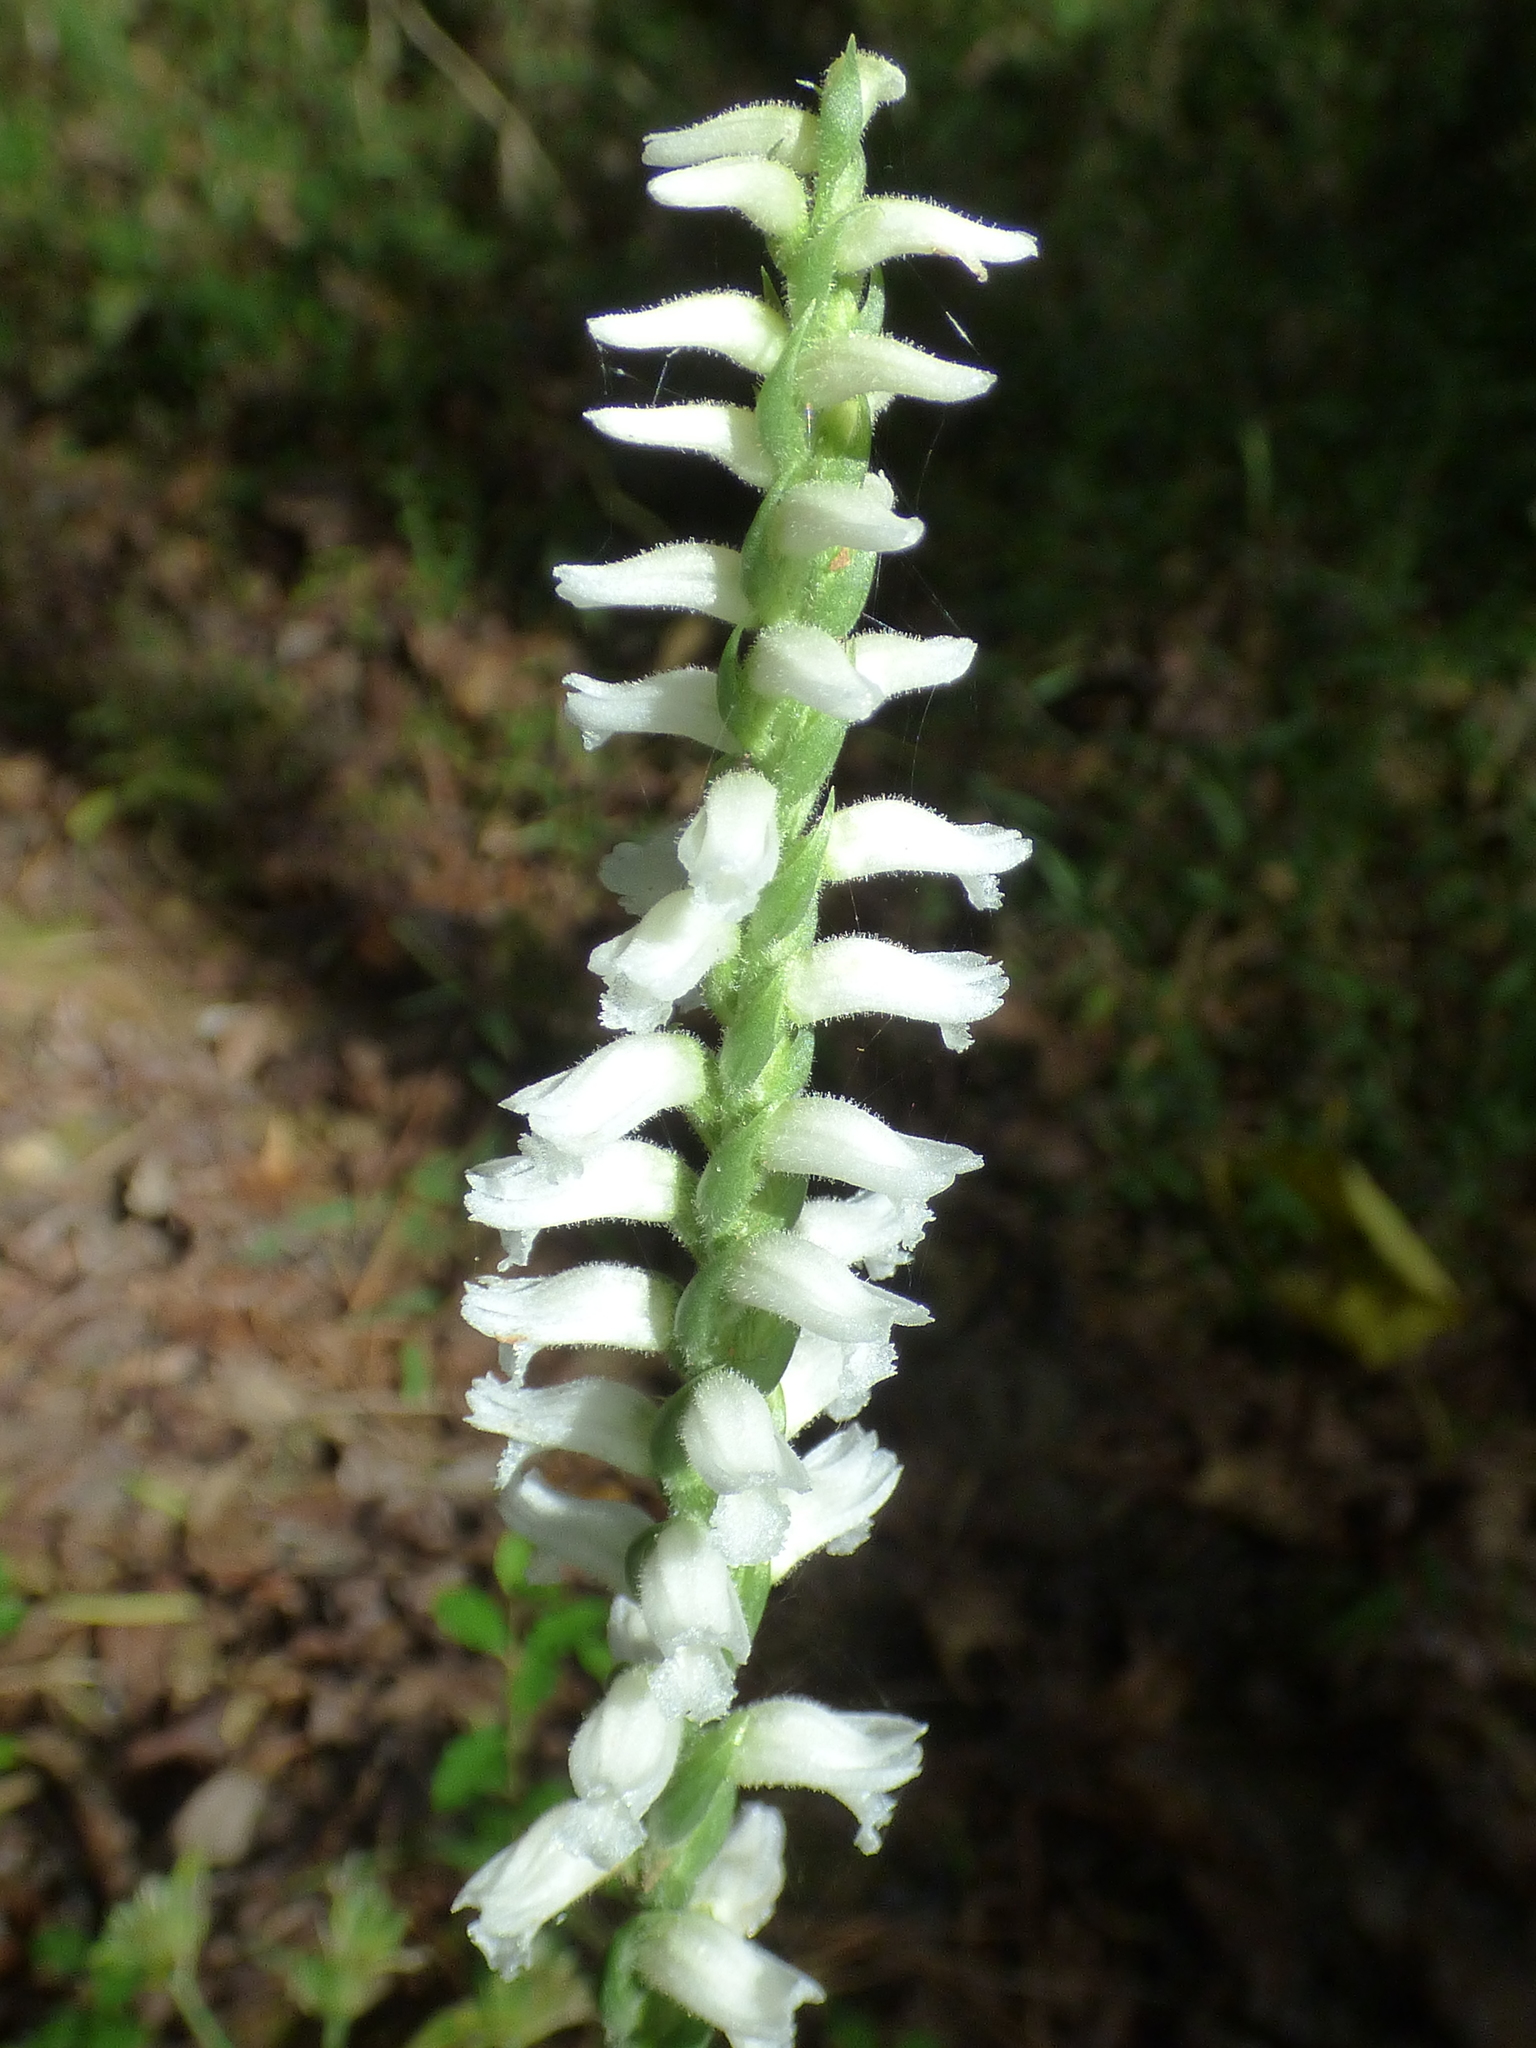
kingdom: Plantae
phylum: Tracheophyta
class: Liliopsida
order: Asparagales
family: Orchidaceae
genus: Spiranthes
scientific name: Spiranthes cernua
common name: Dropping ladies'-tresses
